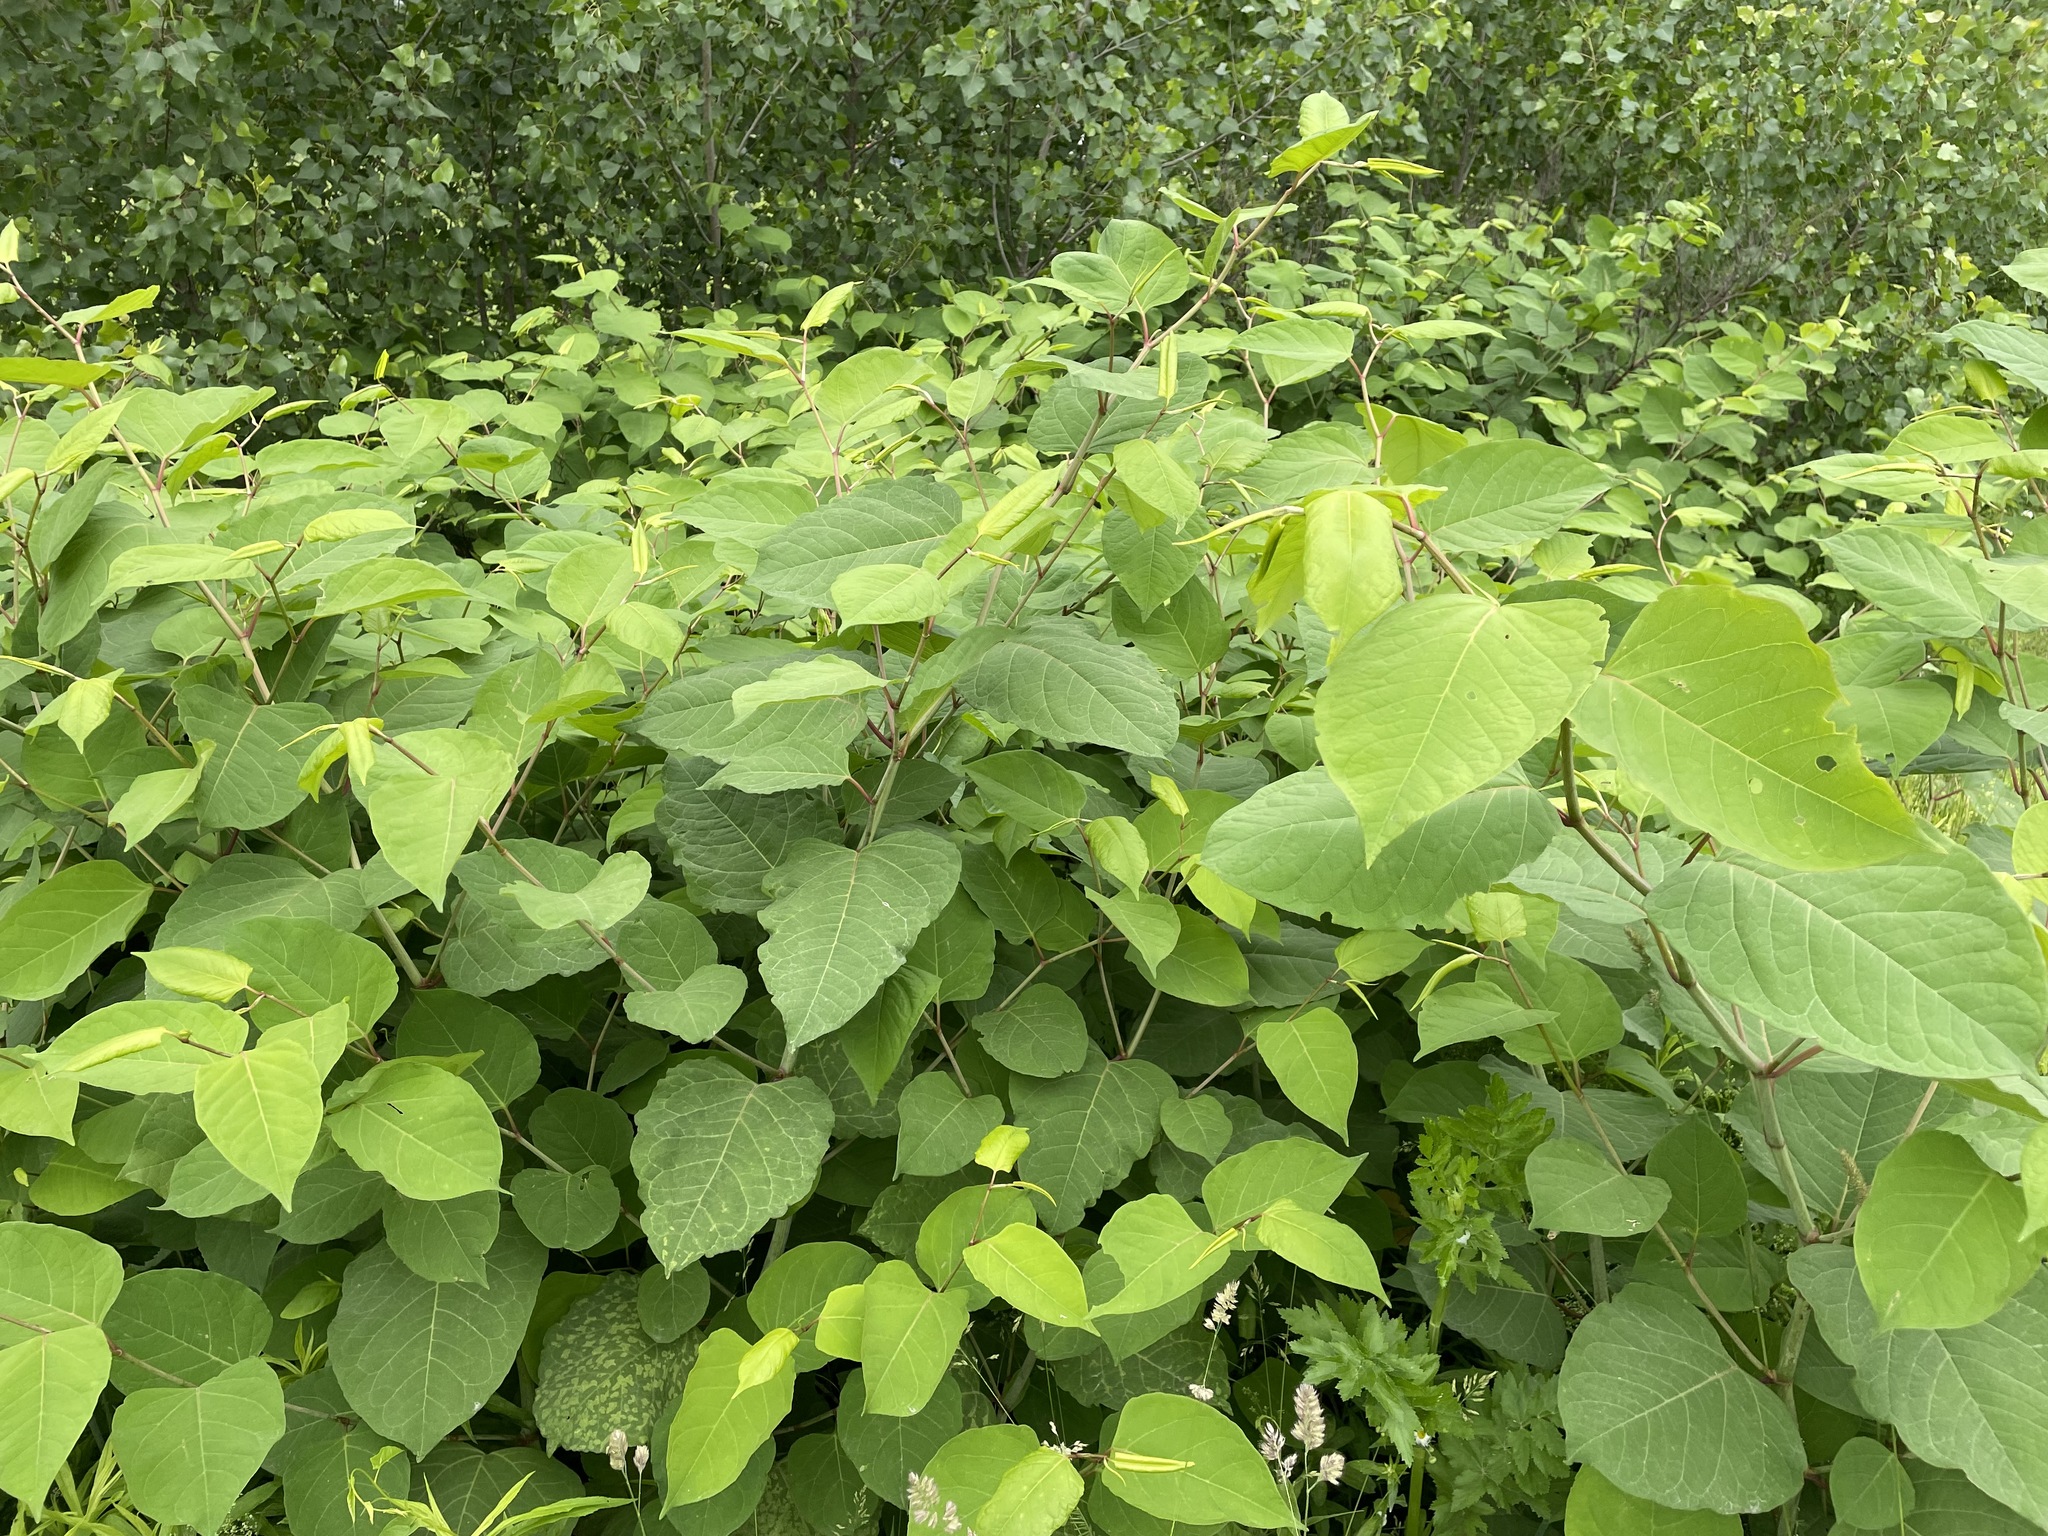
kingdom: Plantae
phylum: Tracheophyta
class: Magnoliopsida
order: Caryophyllales
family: Polygonaceae
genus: Reynoutria
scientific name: Reynoutria japonica
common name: Japanese knotweed
